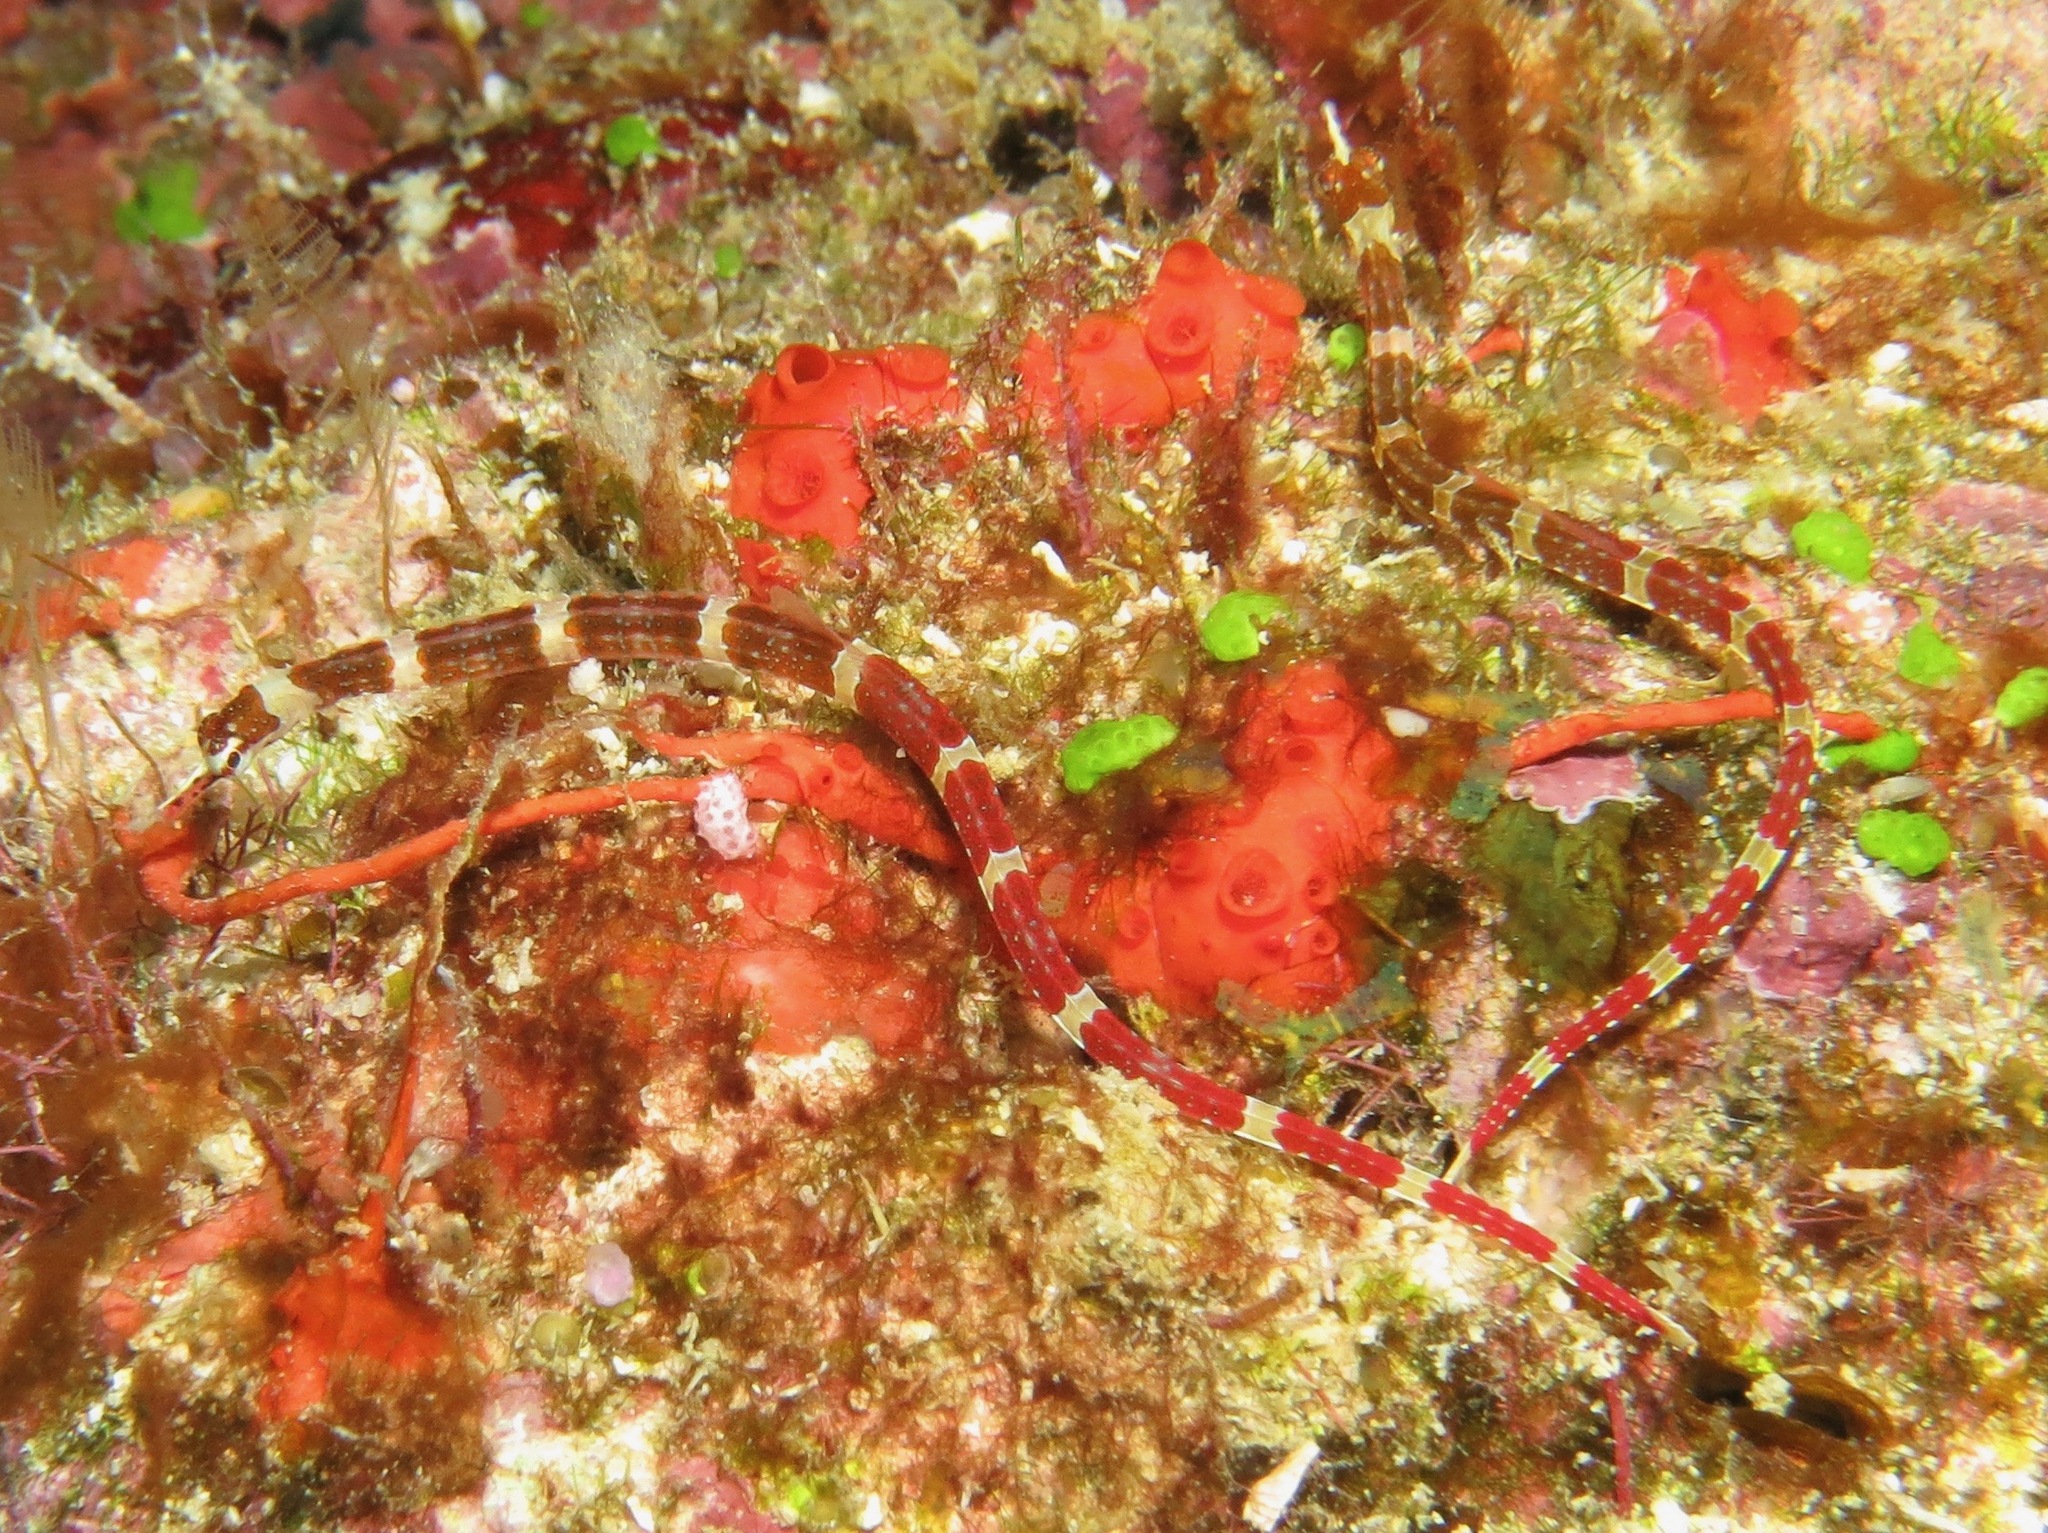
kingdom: Animalia
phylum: Chordata
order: Syngnathiformes
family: Syngnathidae
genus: Corythoichthys
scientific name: Corythoichthys amplexus
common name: Brown-banded pipefish
